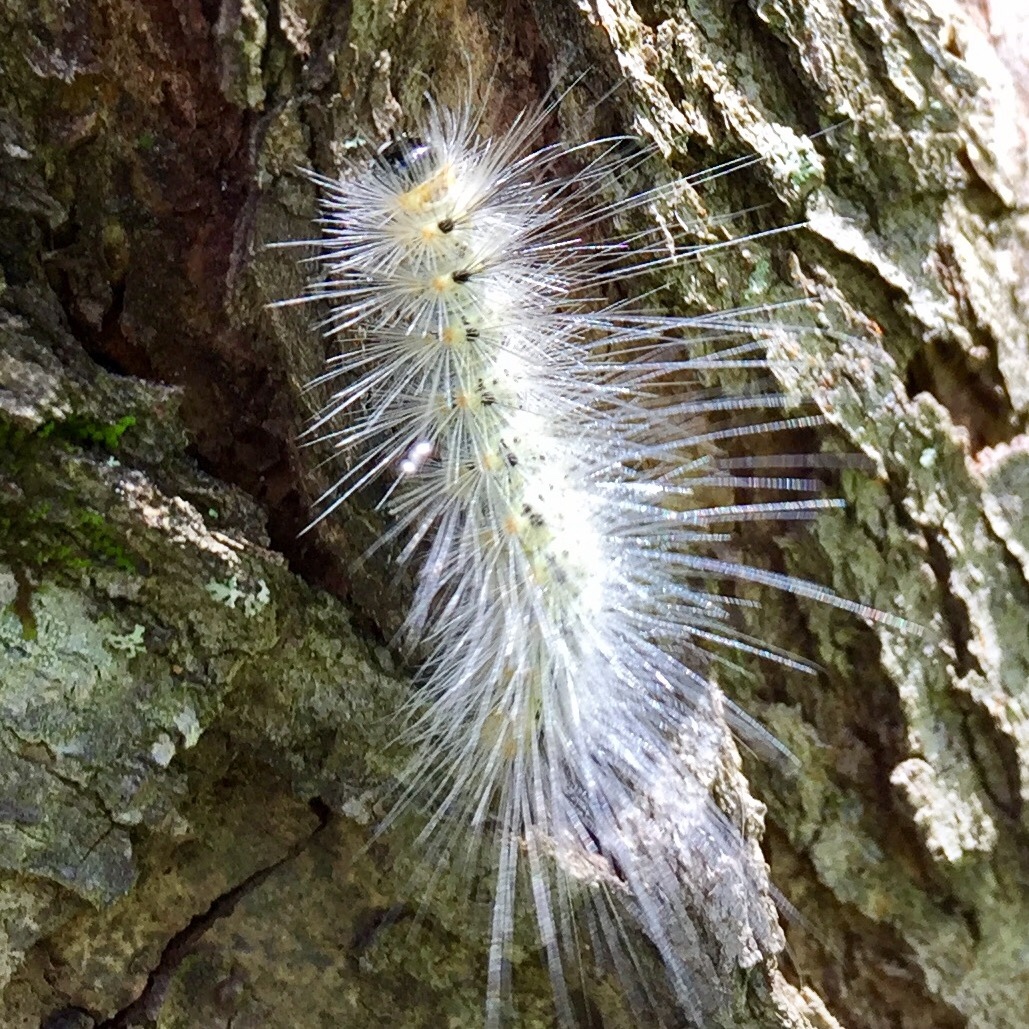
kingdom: Animalia
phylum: Arthropoda
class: Insecta
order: Lepidoptera
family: Erebidae
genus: Hyphantria
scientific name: Hyphantria cunea
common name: American white moth
